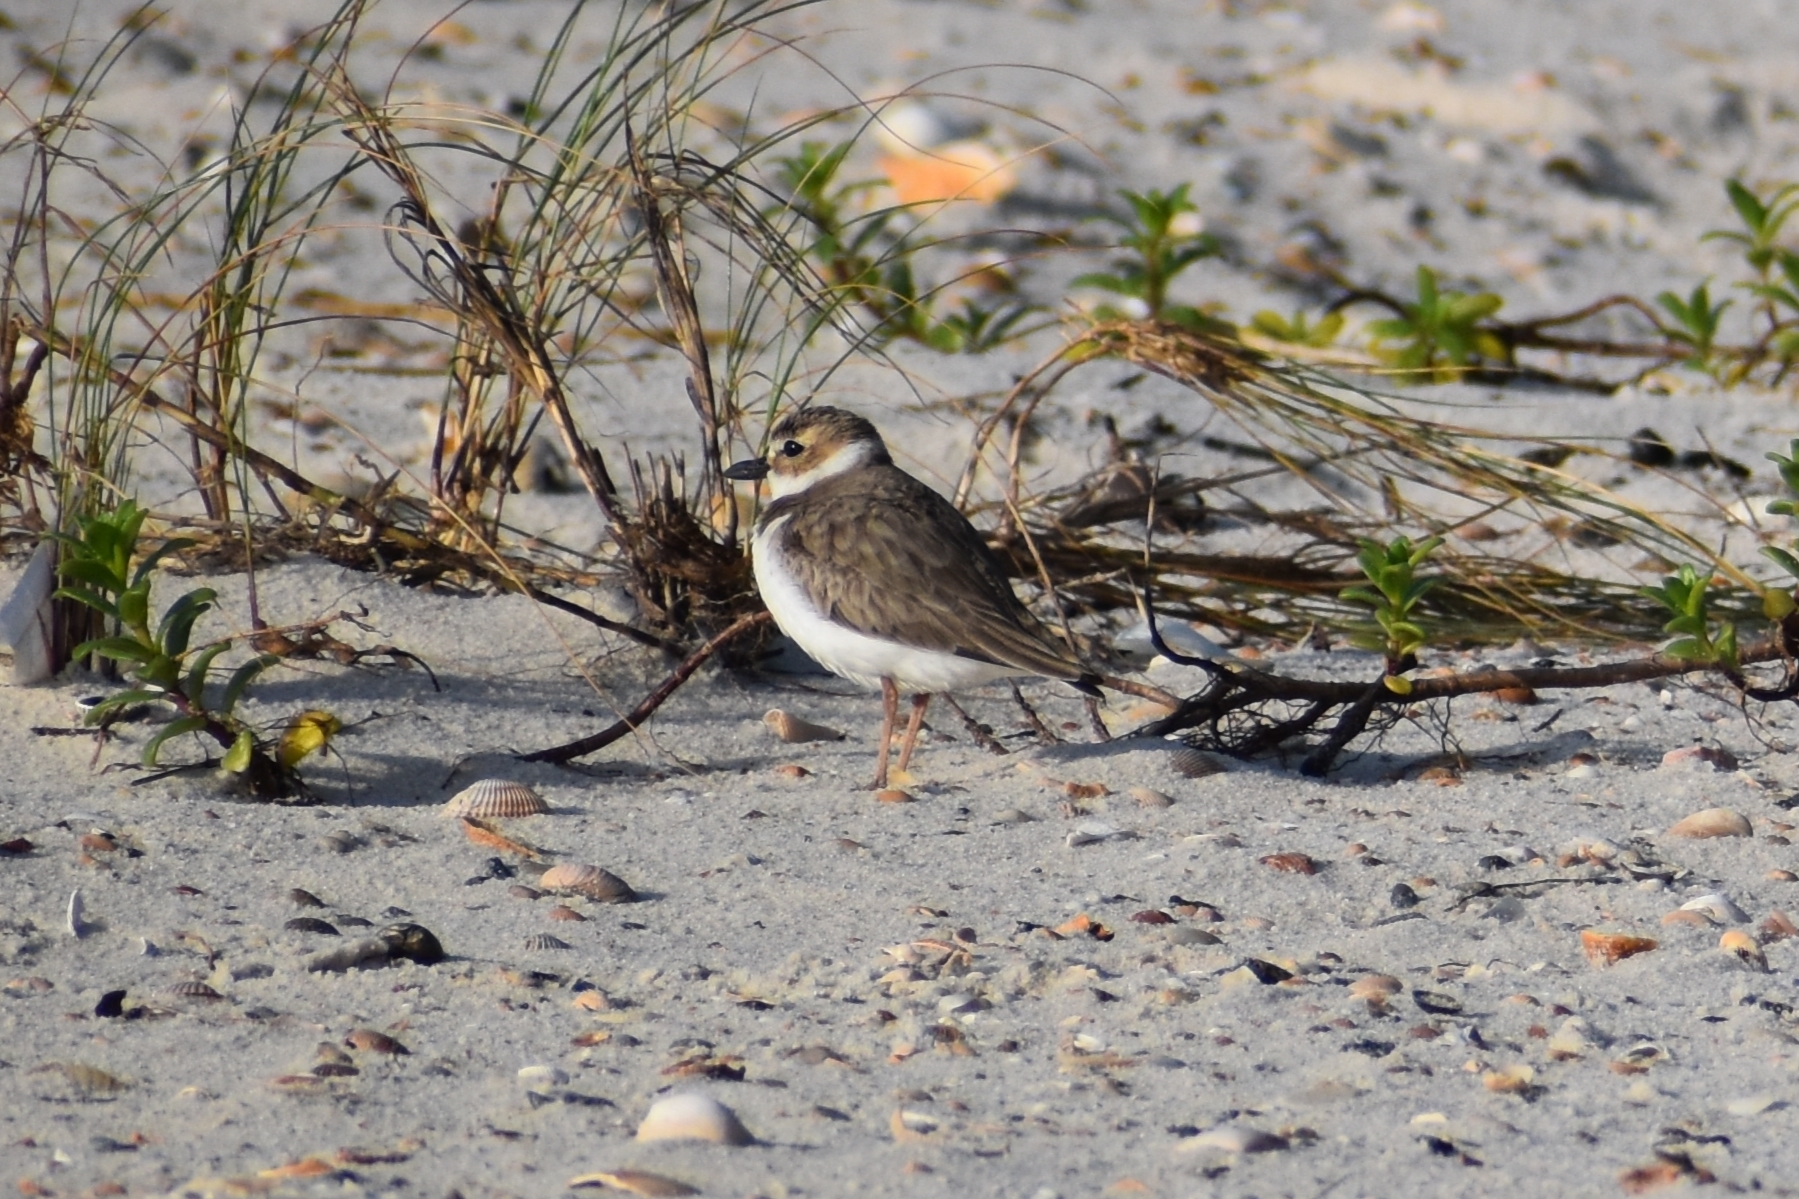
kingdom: Animalia
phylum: Chordata
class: Aves
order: Charadriiformes
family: Charadriidae
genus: Anarhynchus
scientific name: Anarhynchus
